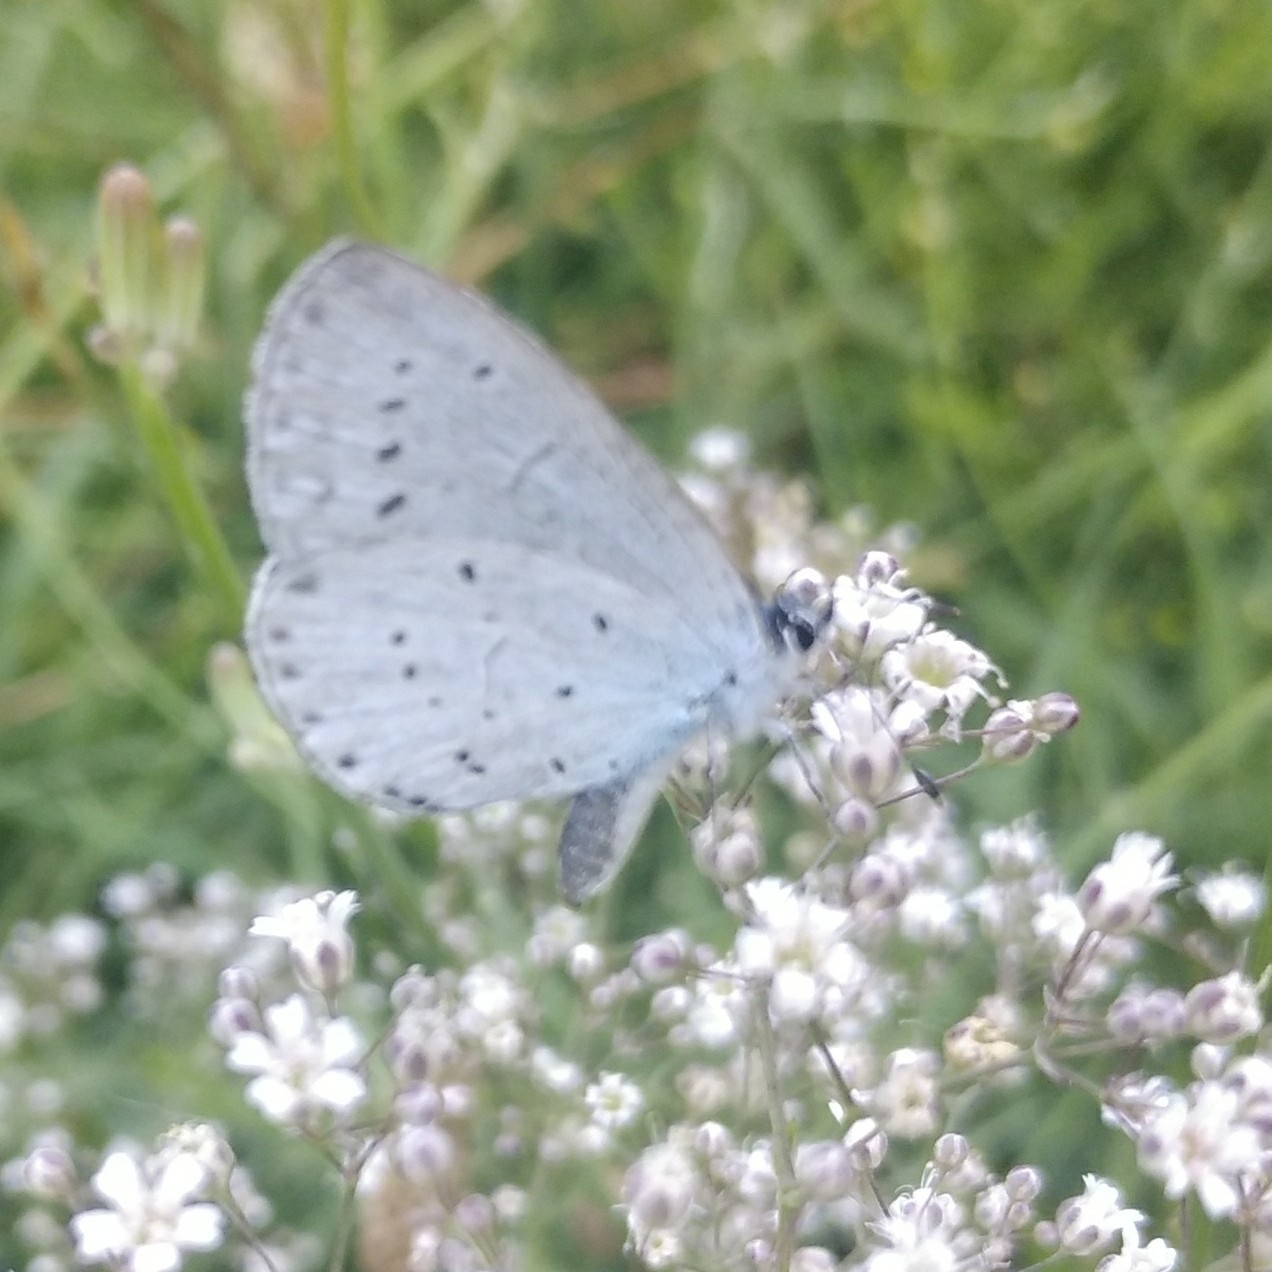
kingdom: Animalia
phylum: Arthropoda
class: Insecta
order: Lepidoptera
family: Lycaenidae
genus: Celastrina
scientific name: Celastrina argiolus
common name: Holly blue
